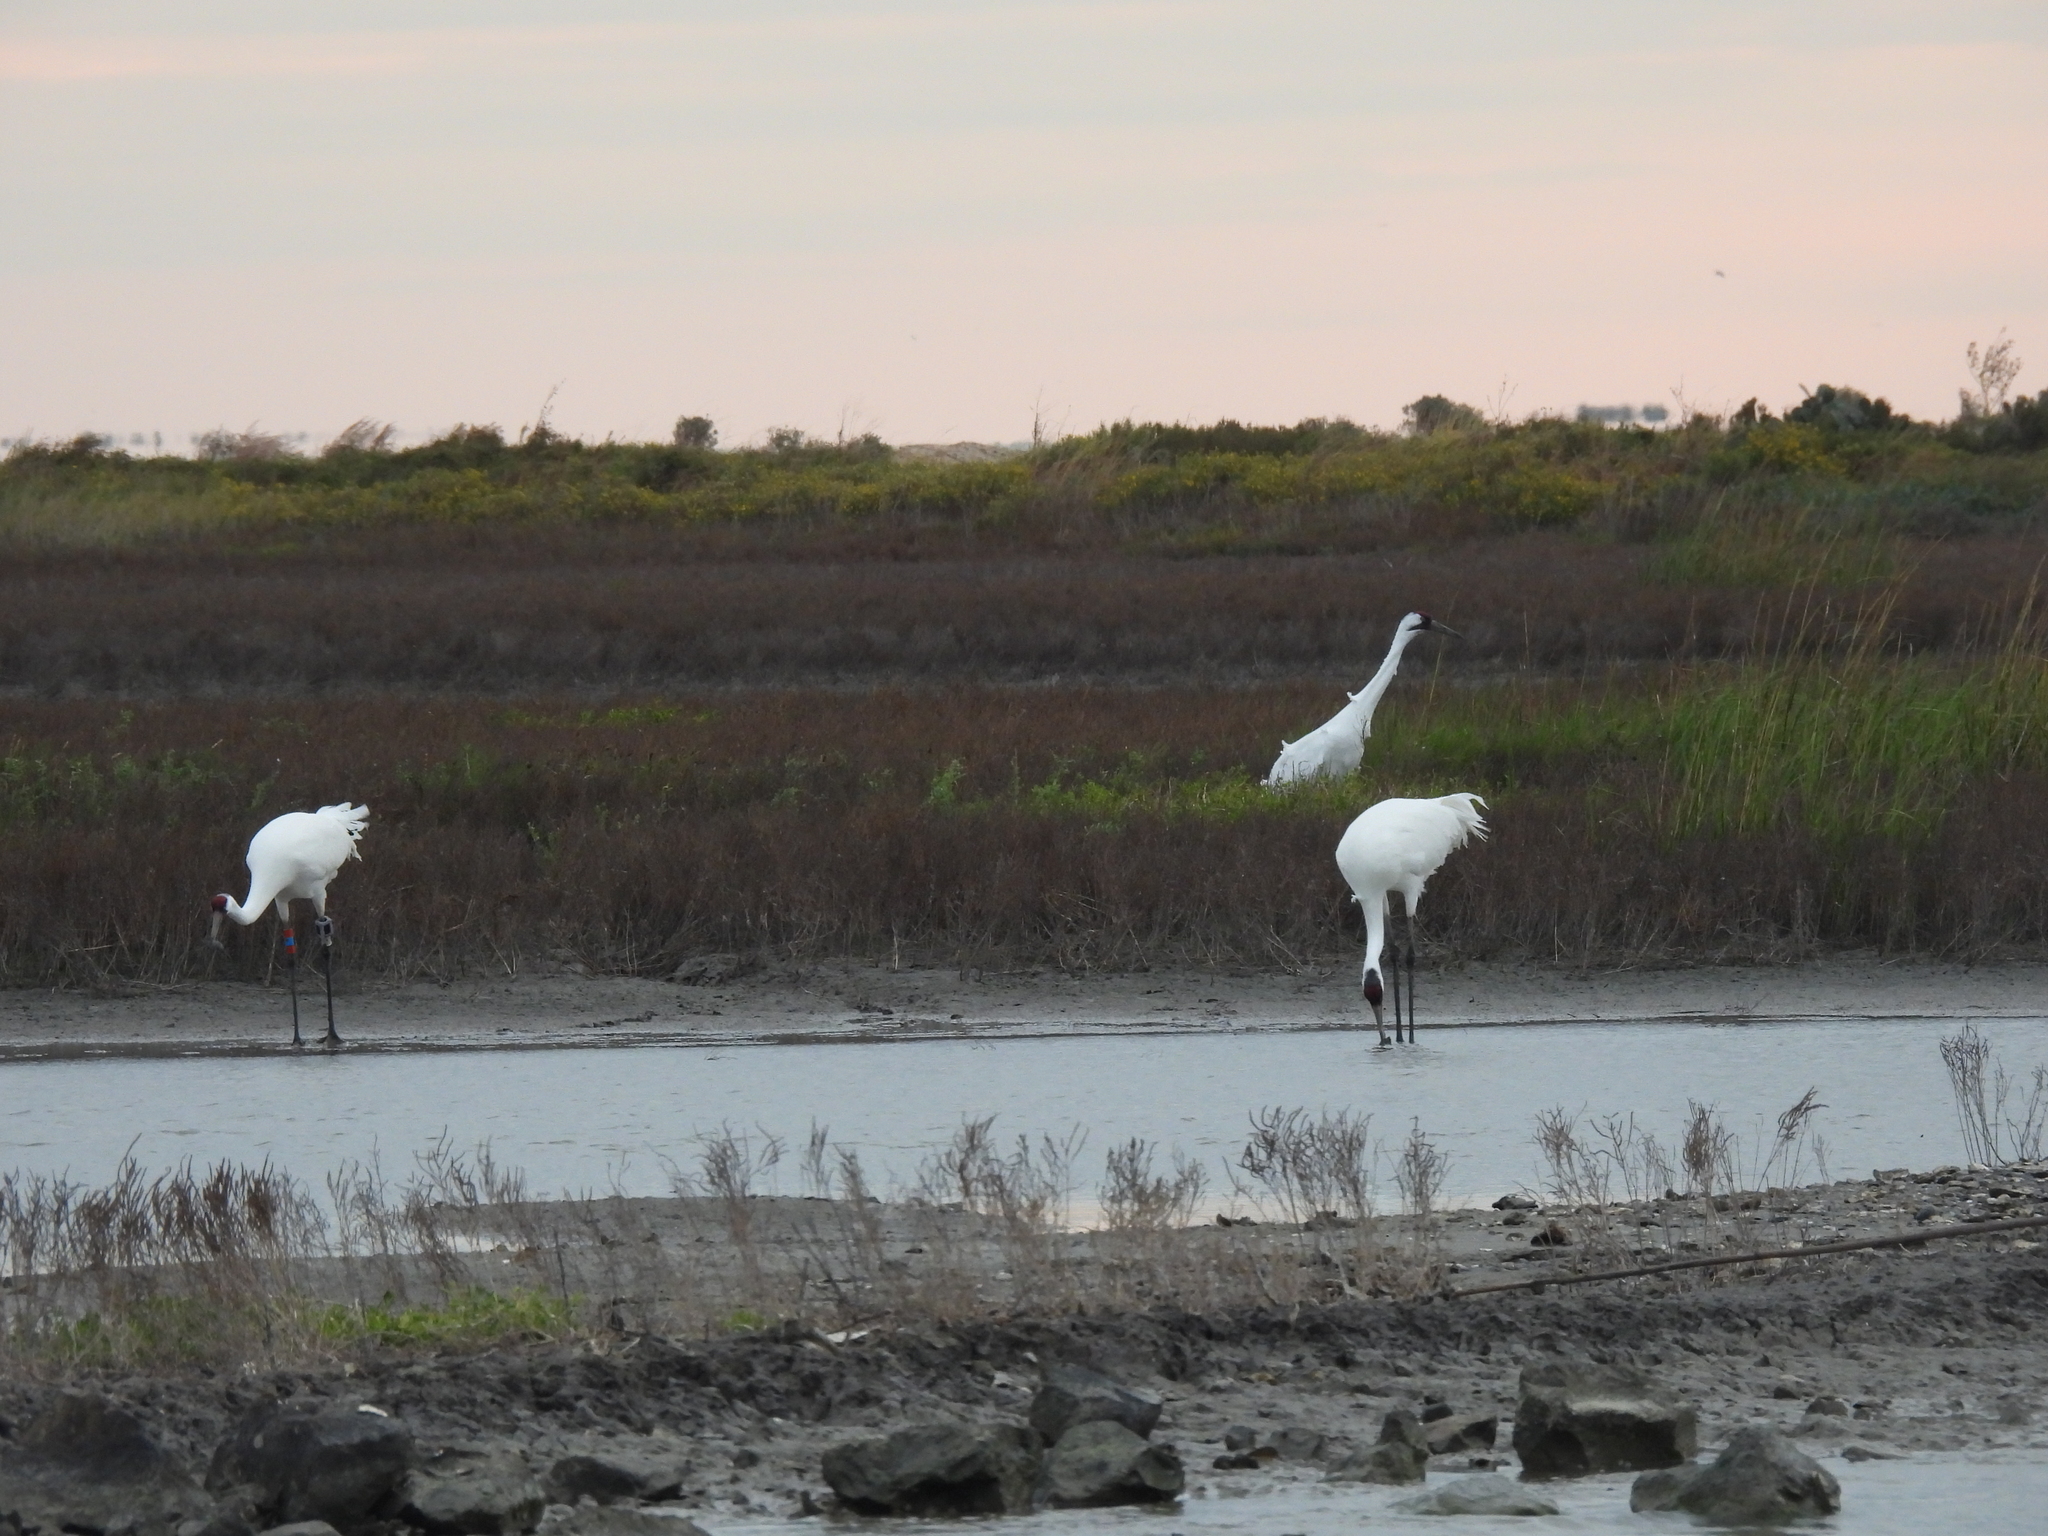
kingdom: Animalia
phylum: Chordata
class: Aves
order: Gruiformes
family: Gruidae
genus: Grus
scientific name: Grus americana
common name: Whooping crane
